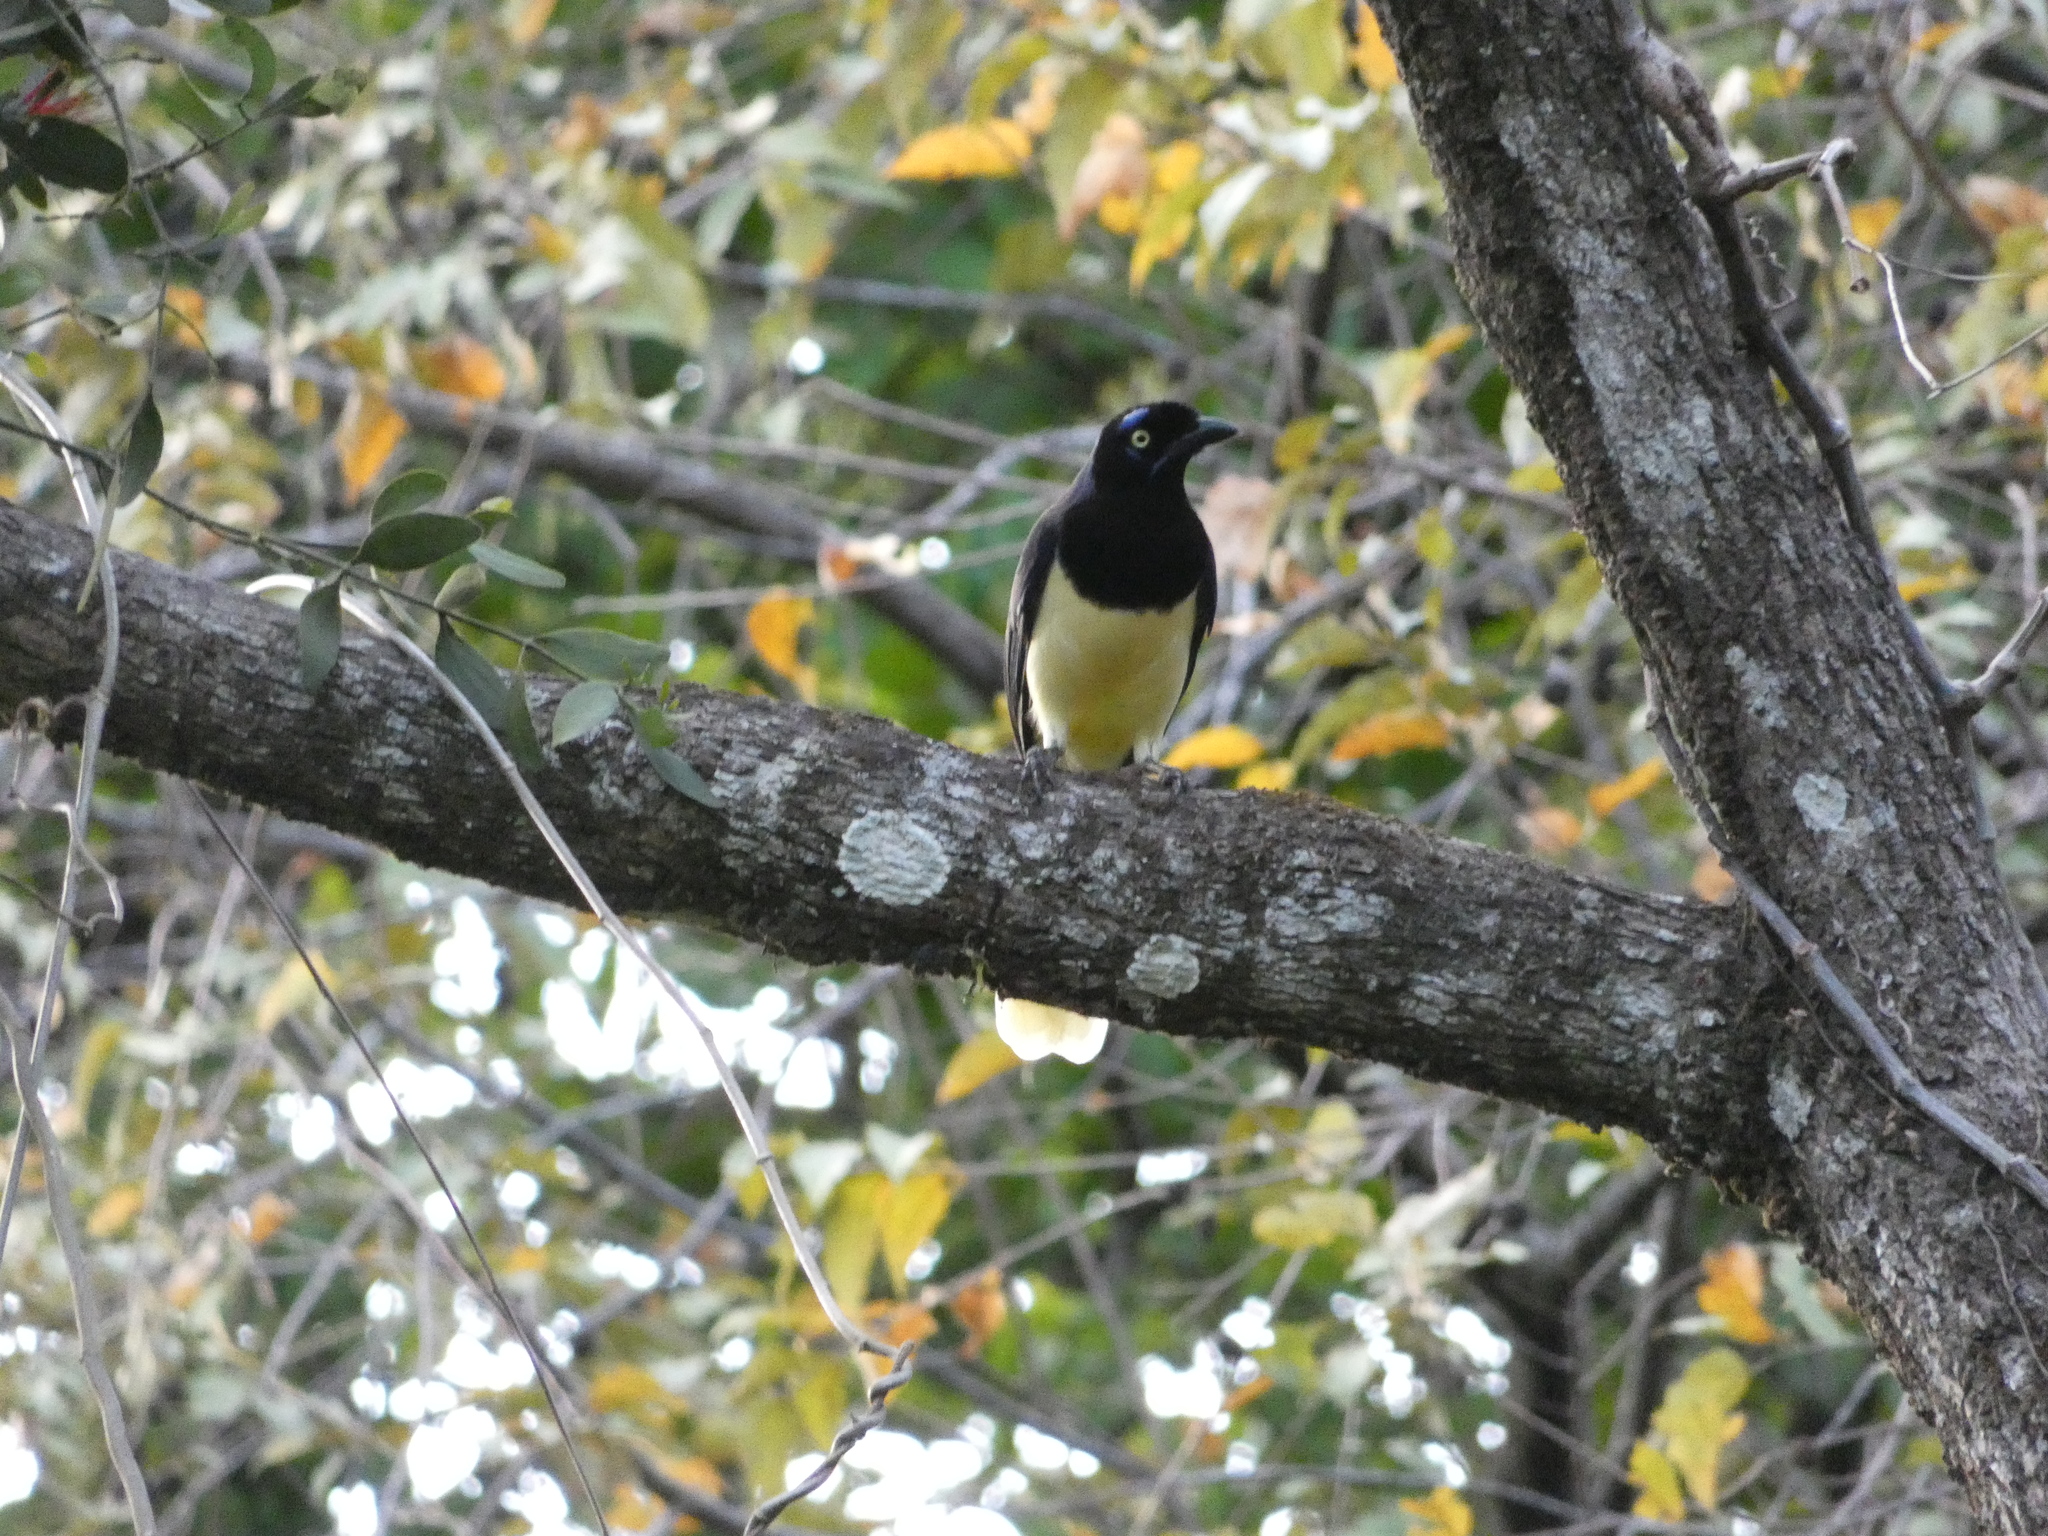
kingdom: Animalia
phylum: Chordata
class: Aves
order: Passeriformes
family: Corvidae
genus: Cyanocorax
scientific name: Cyanocorax affinis
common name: Black-chested jay
